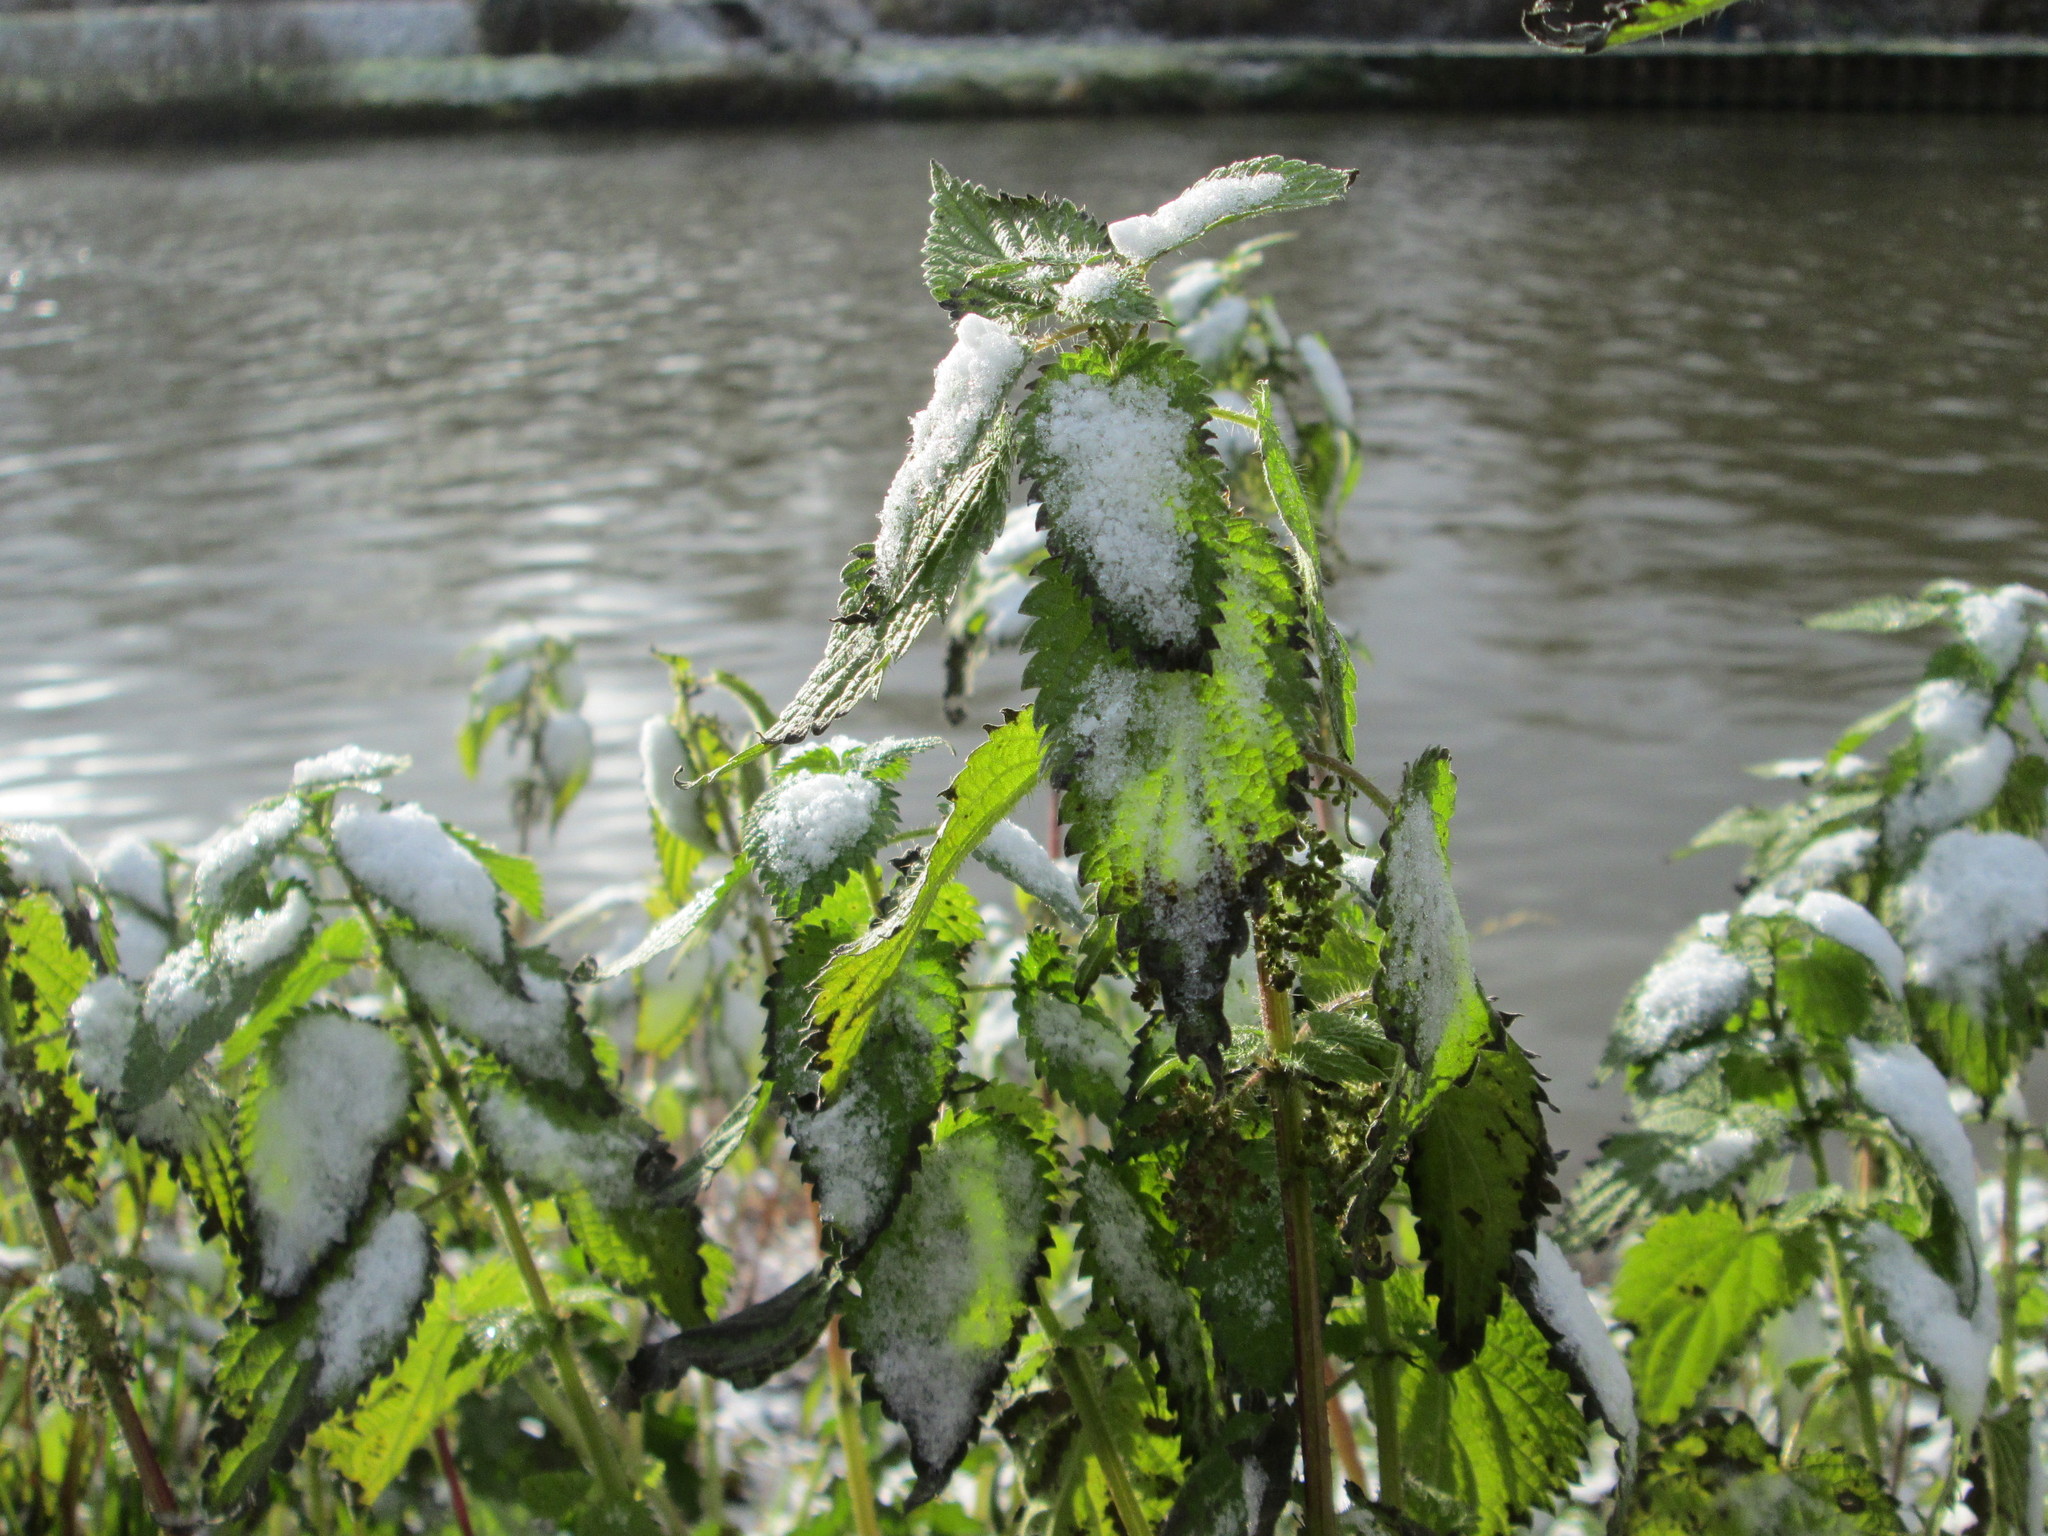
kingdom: Plantae
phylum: Tracheophyta
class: Magnoliopsida
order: Rosales
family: Urticaceae
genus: Urtica
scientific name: Urtica dioica
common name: Common nettle
